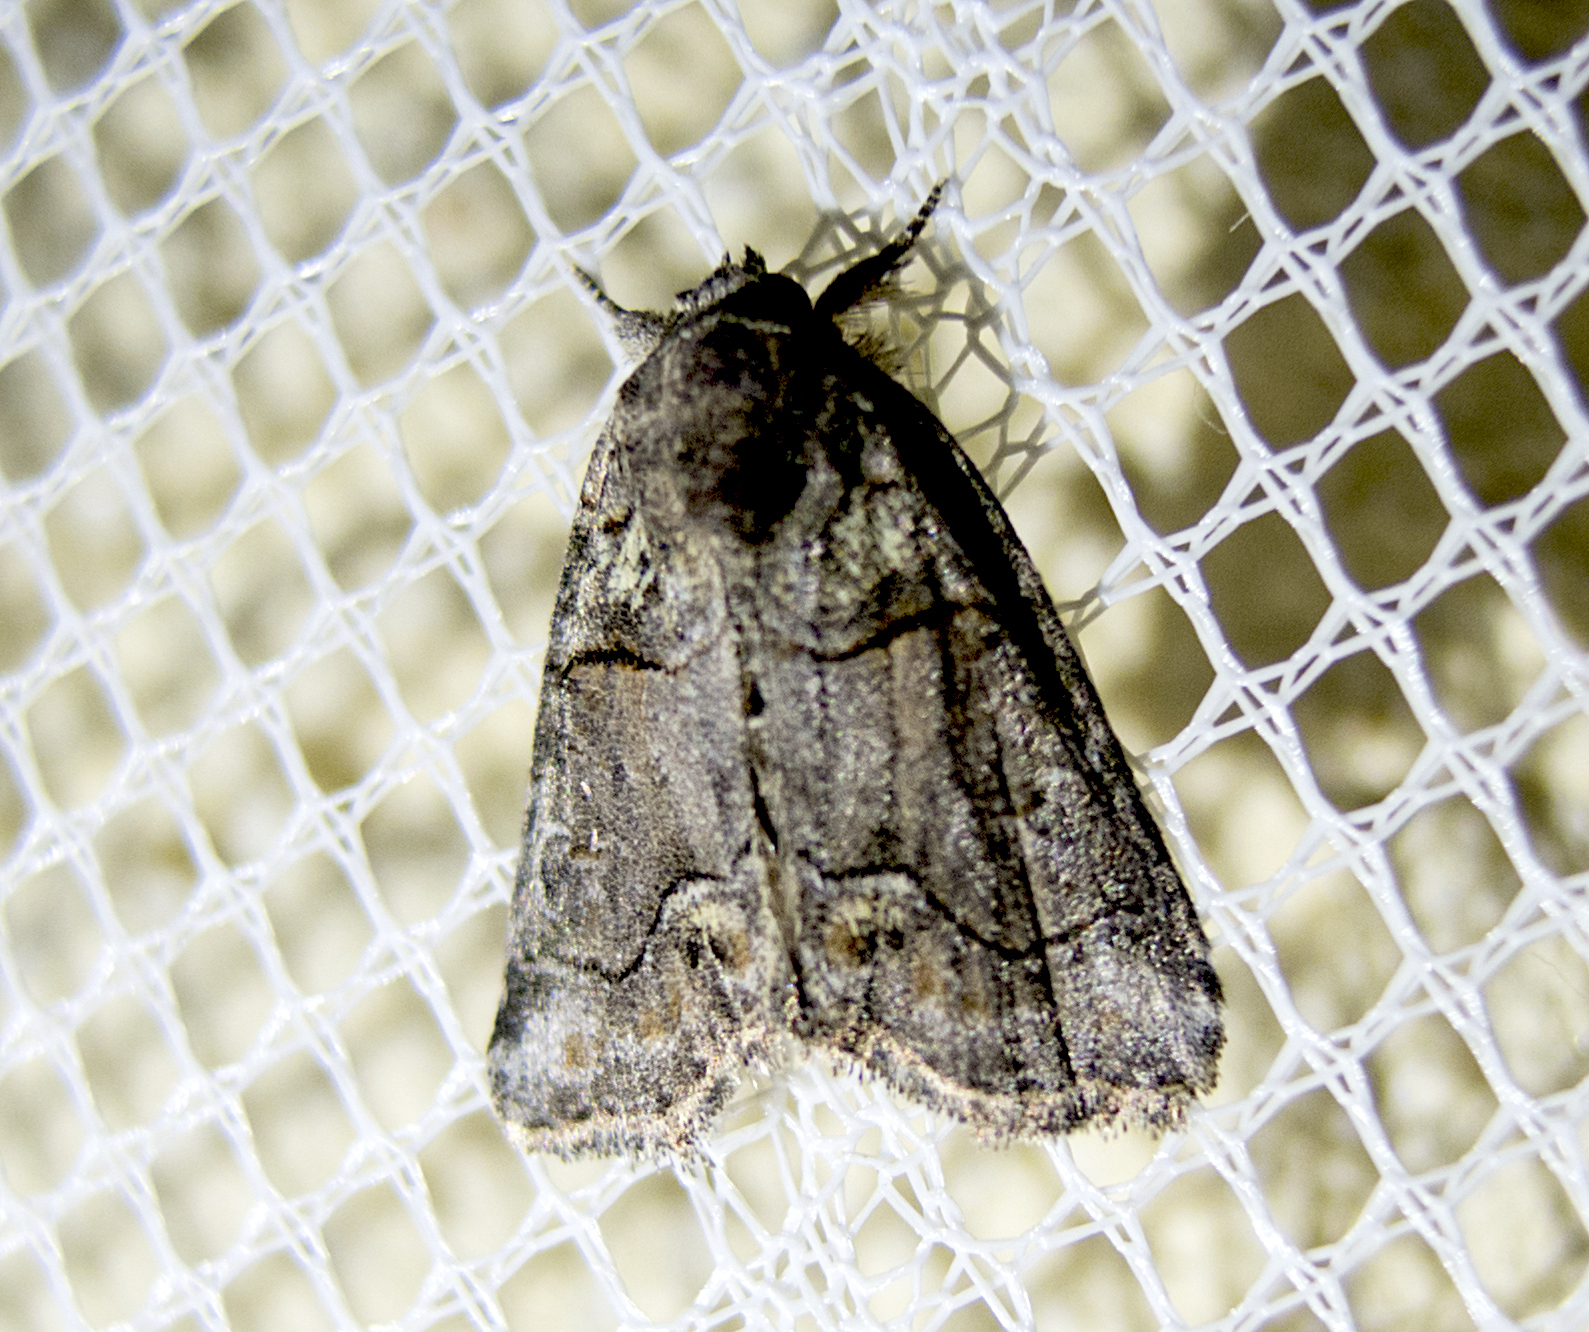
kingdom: Animalia
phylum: Arthropoda
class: Insecta
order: Lepidoptera
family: Noctuidae
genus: Bryophila
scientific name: Bryophila rectilinea
